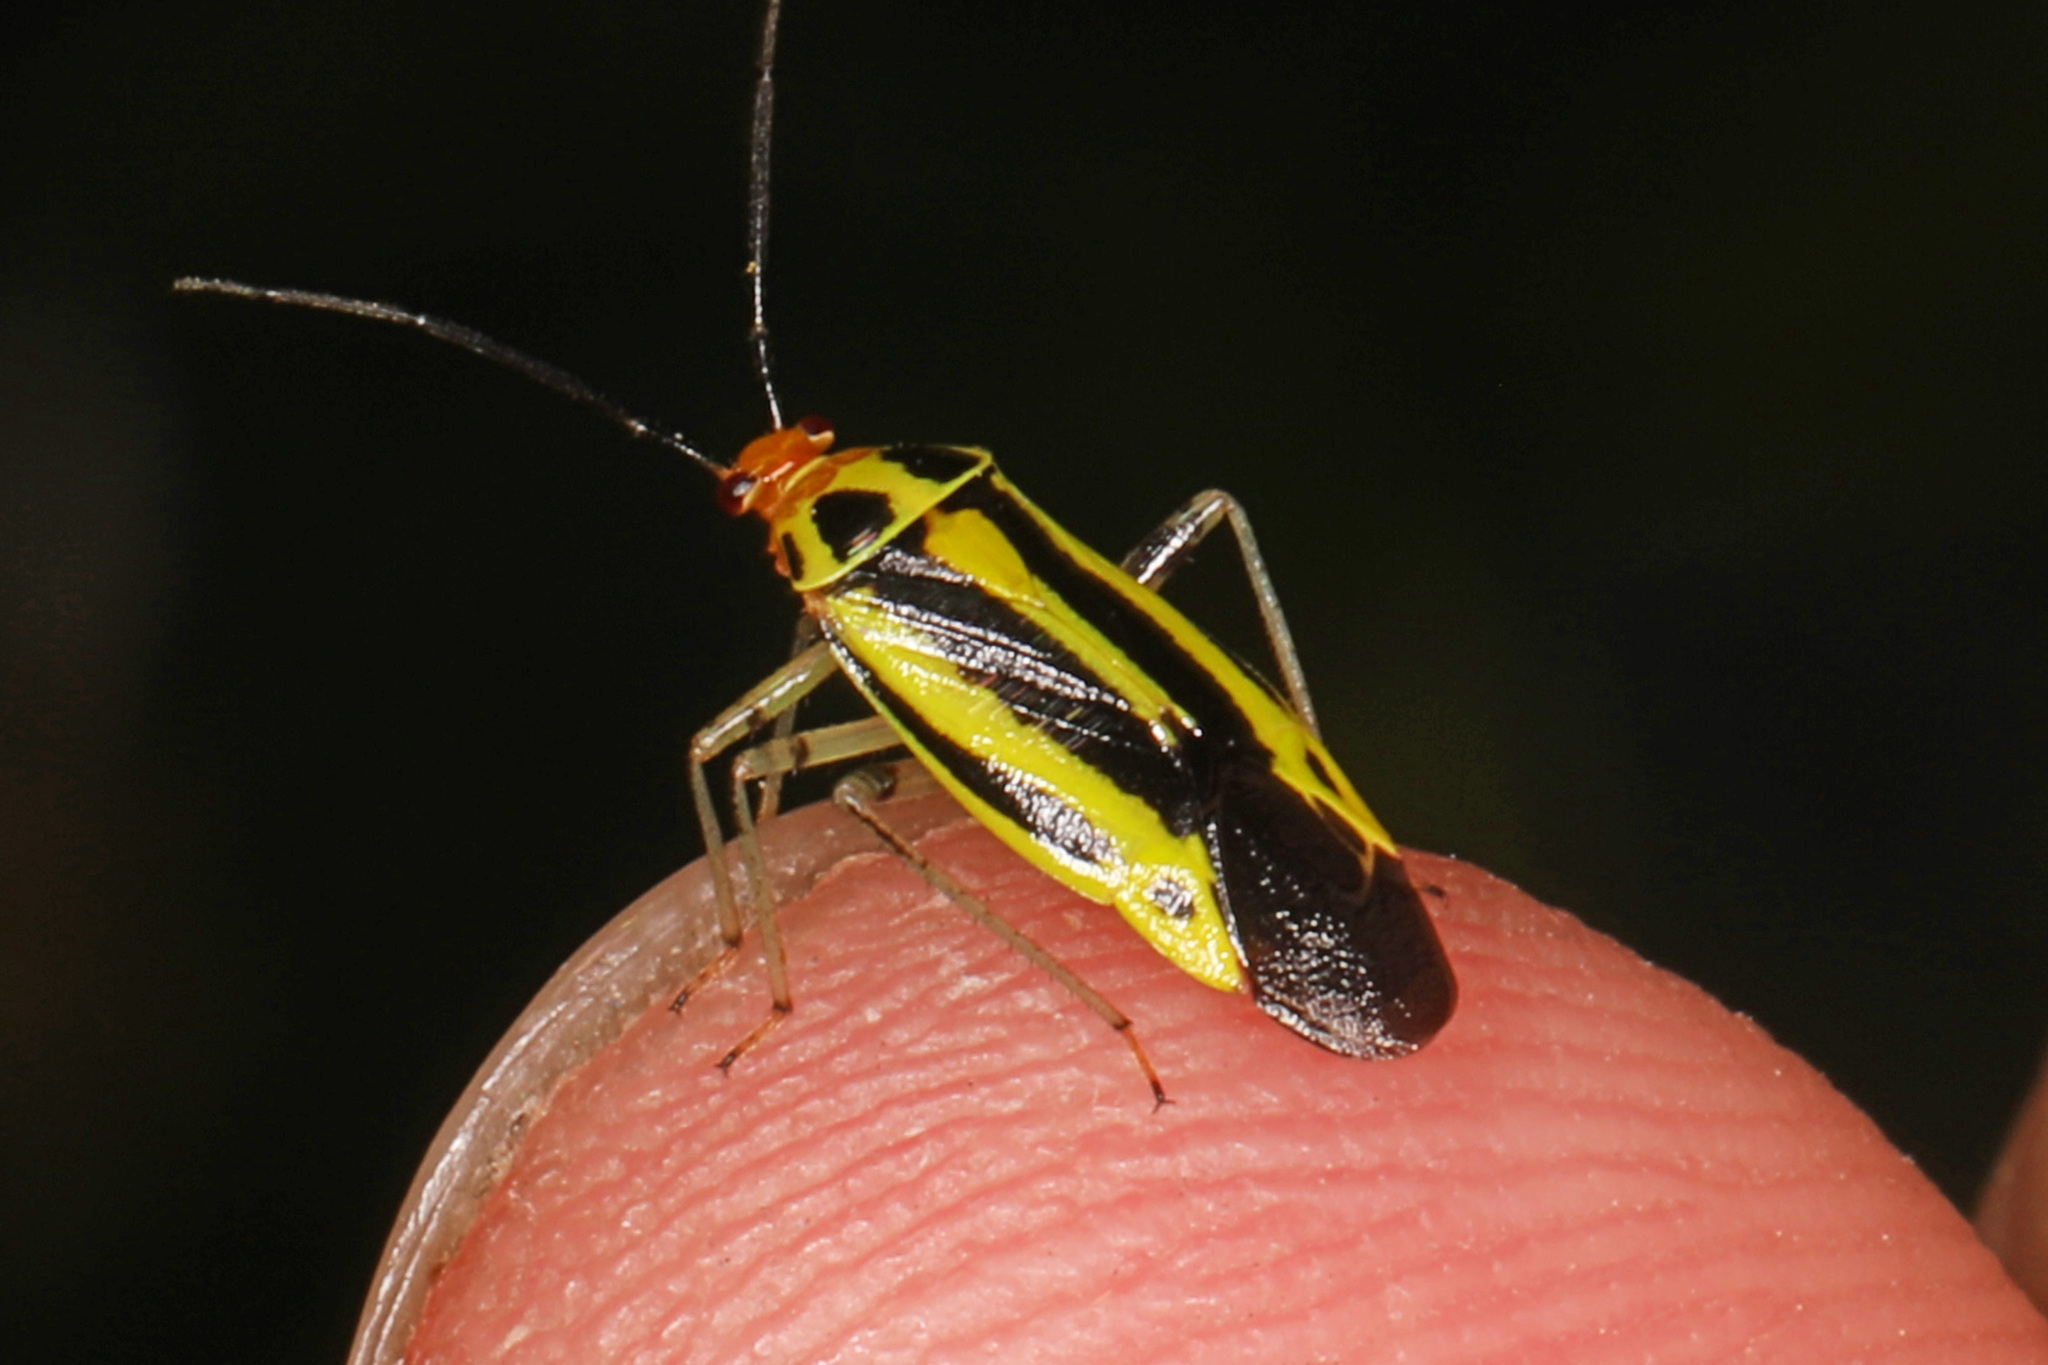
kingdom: Animalia
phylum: Arthropoda
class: Insecta
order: Hemiptera
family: Miridae
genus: Poecilocapsus
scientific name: Poecilocapsus lineatus
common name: Four-lined plant bug
